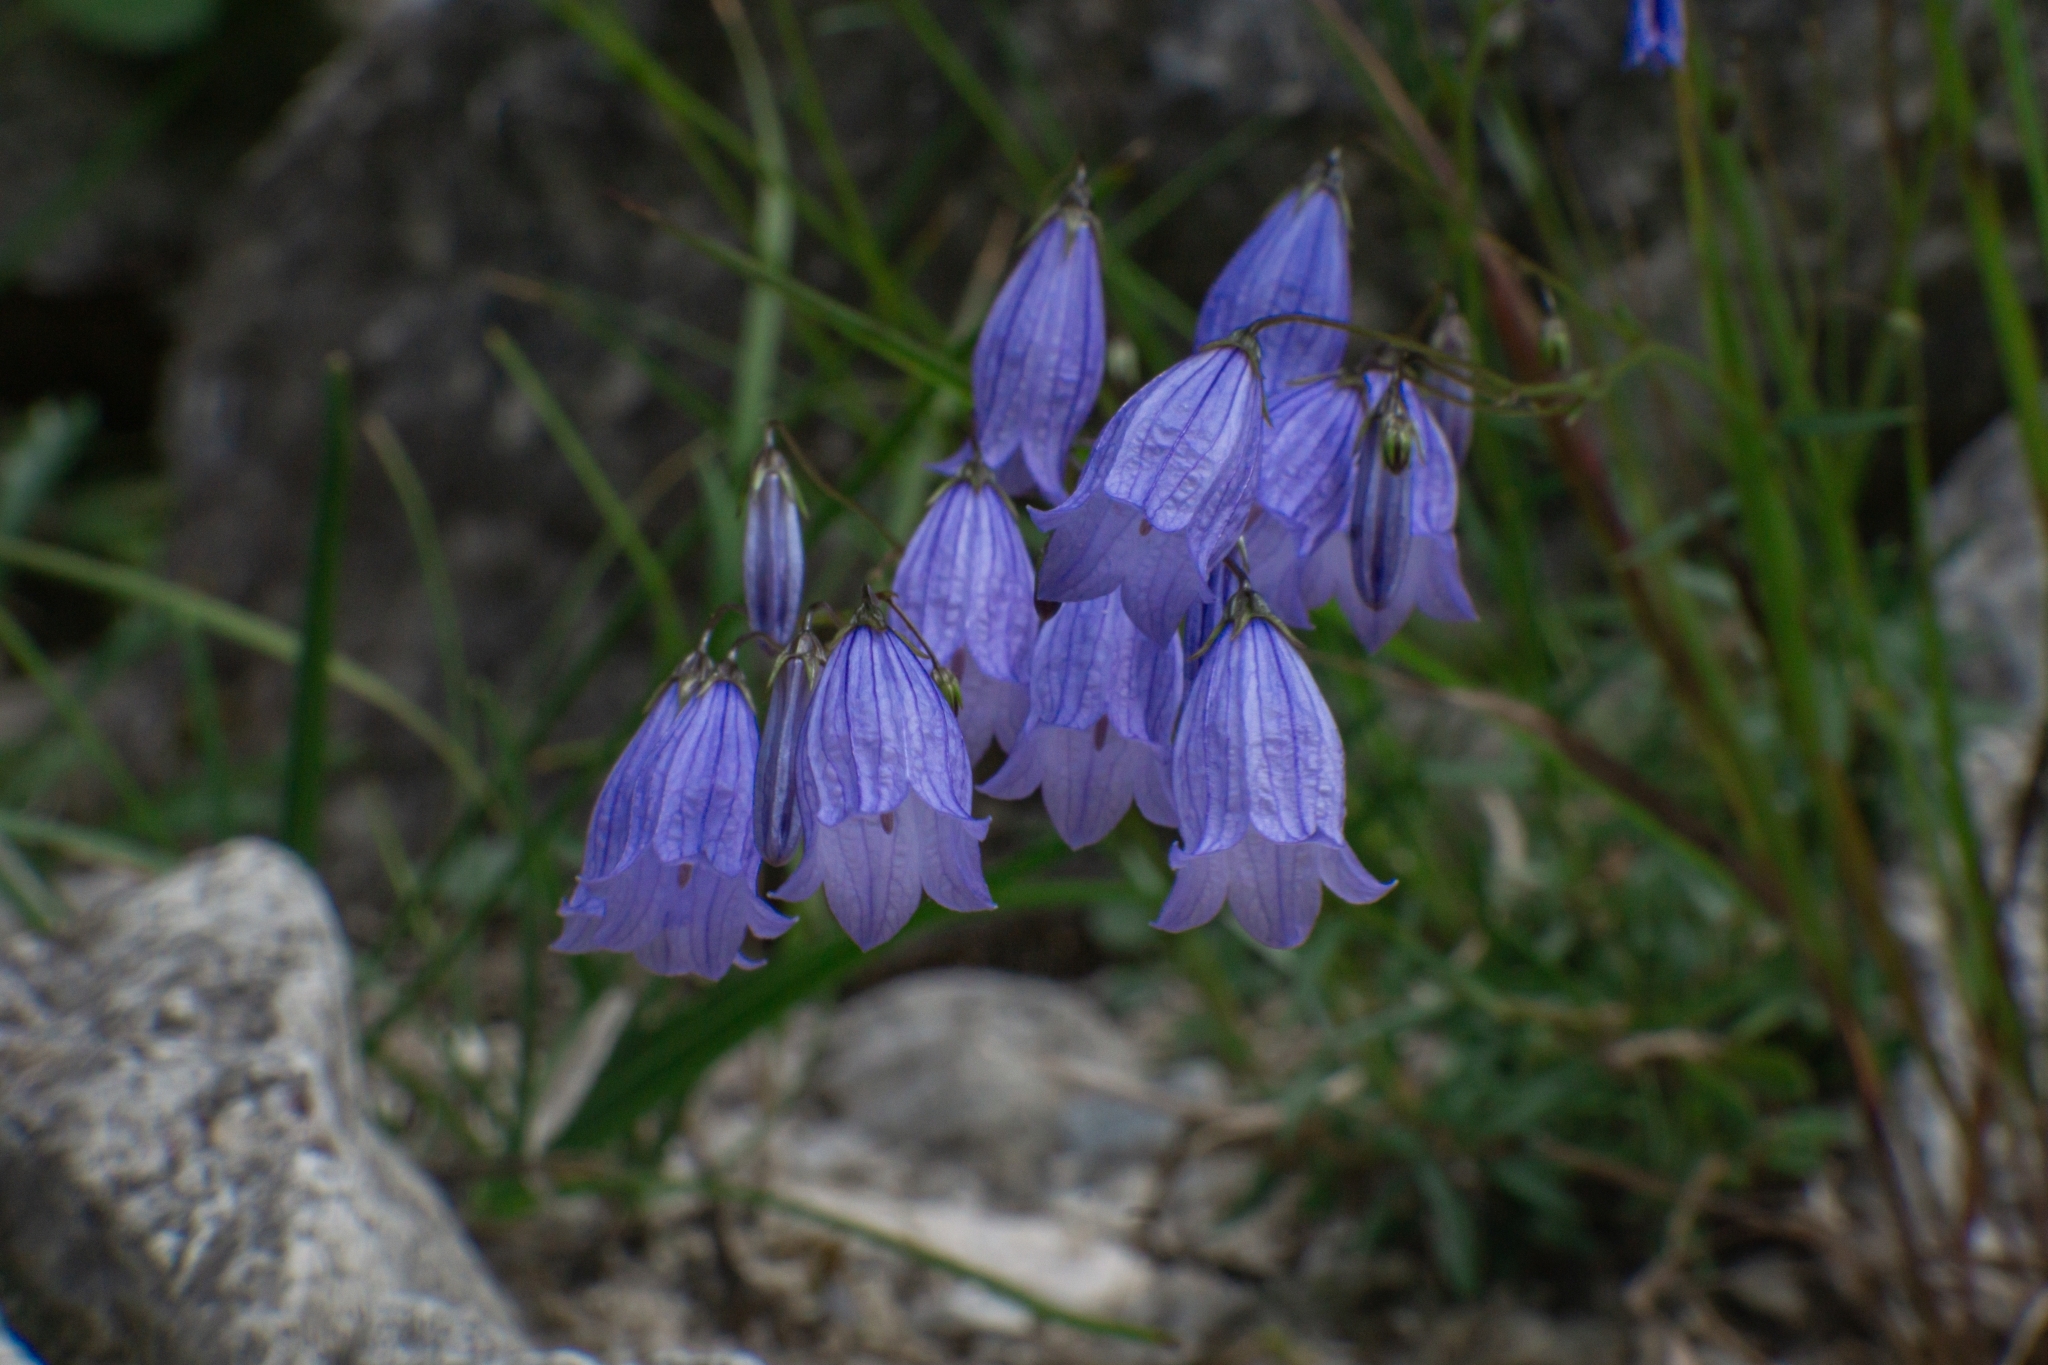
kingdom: Plantae
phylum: Tracheophyta
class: Magnoliopsida
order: Asterales
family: Campanulaceae
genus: Campanula
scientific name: Campanula cespitosa
